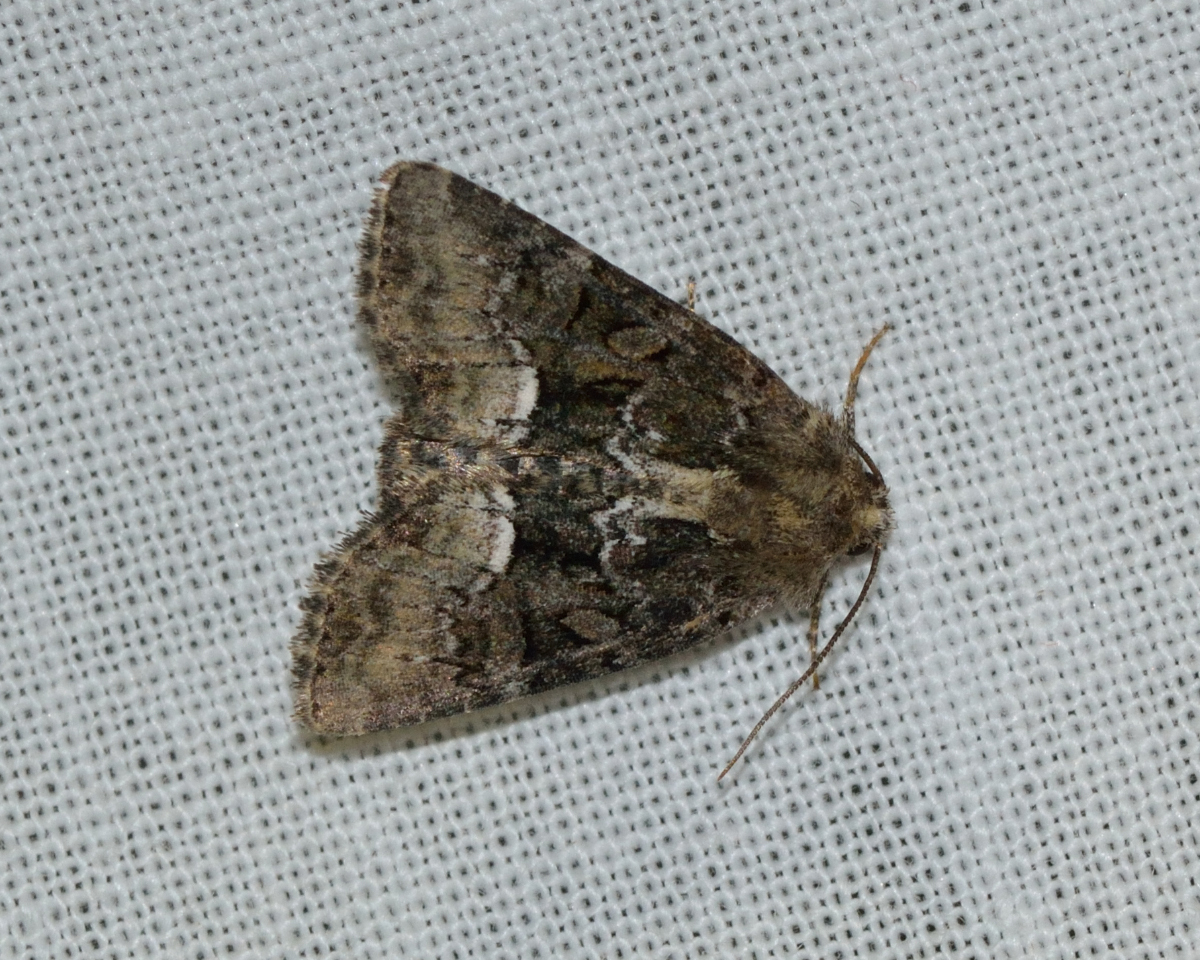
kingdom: Animalia
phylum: Arthropoda
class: Insecta
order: Lepidoptera
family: Noctuidae
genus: Oligia
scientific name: Oligia strigilis
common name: Marbled minor
